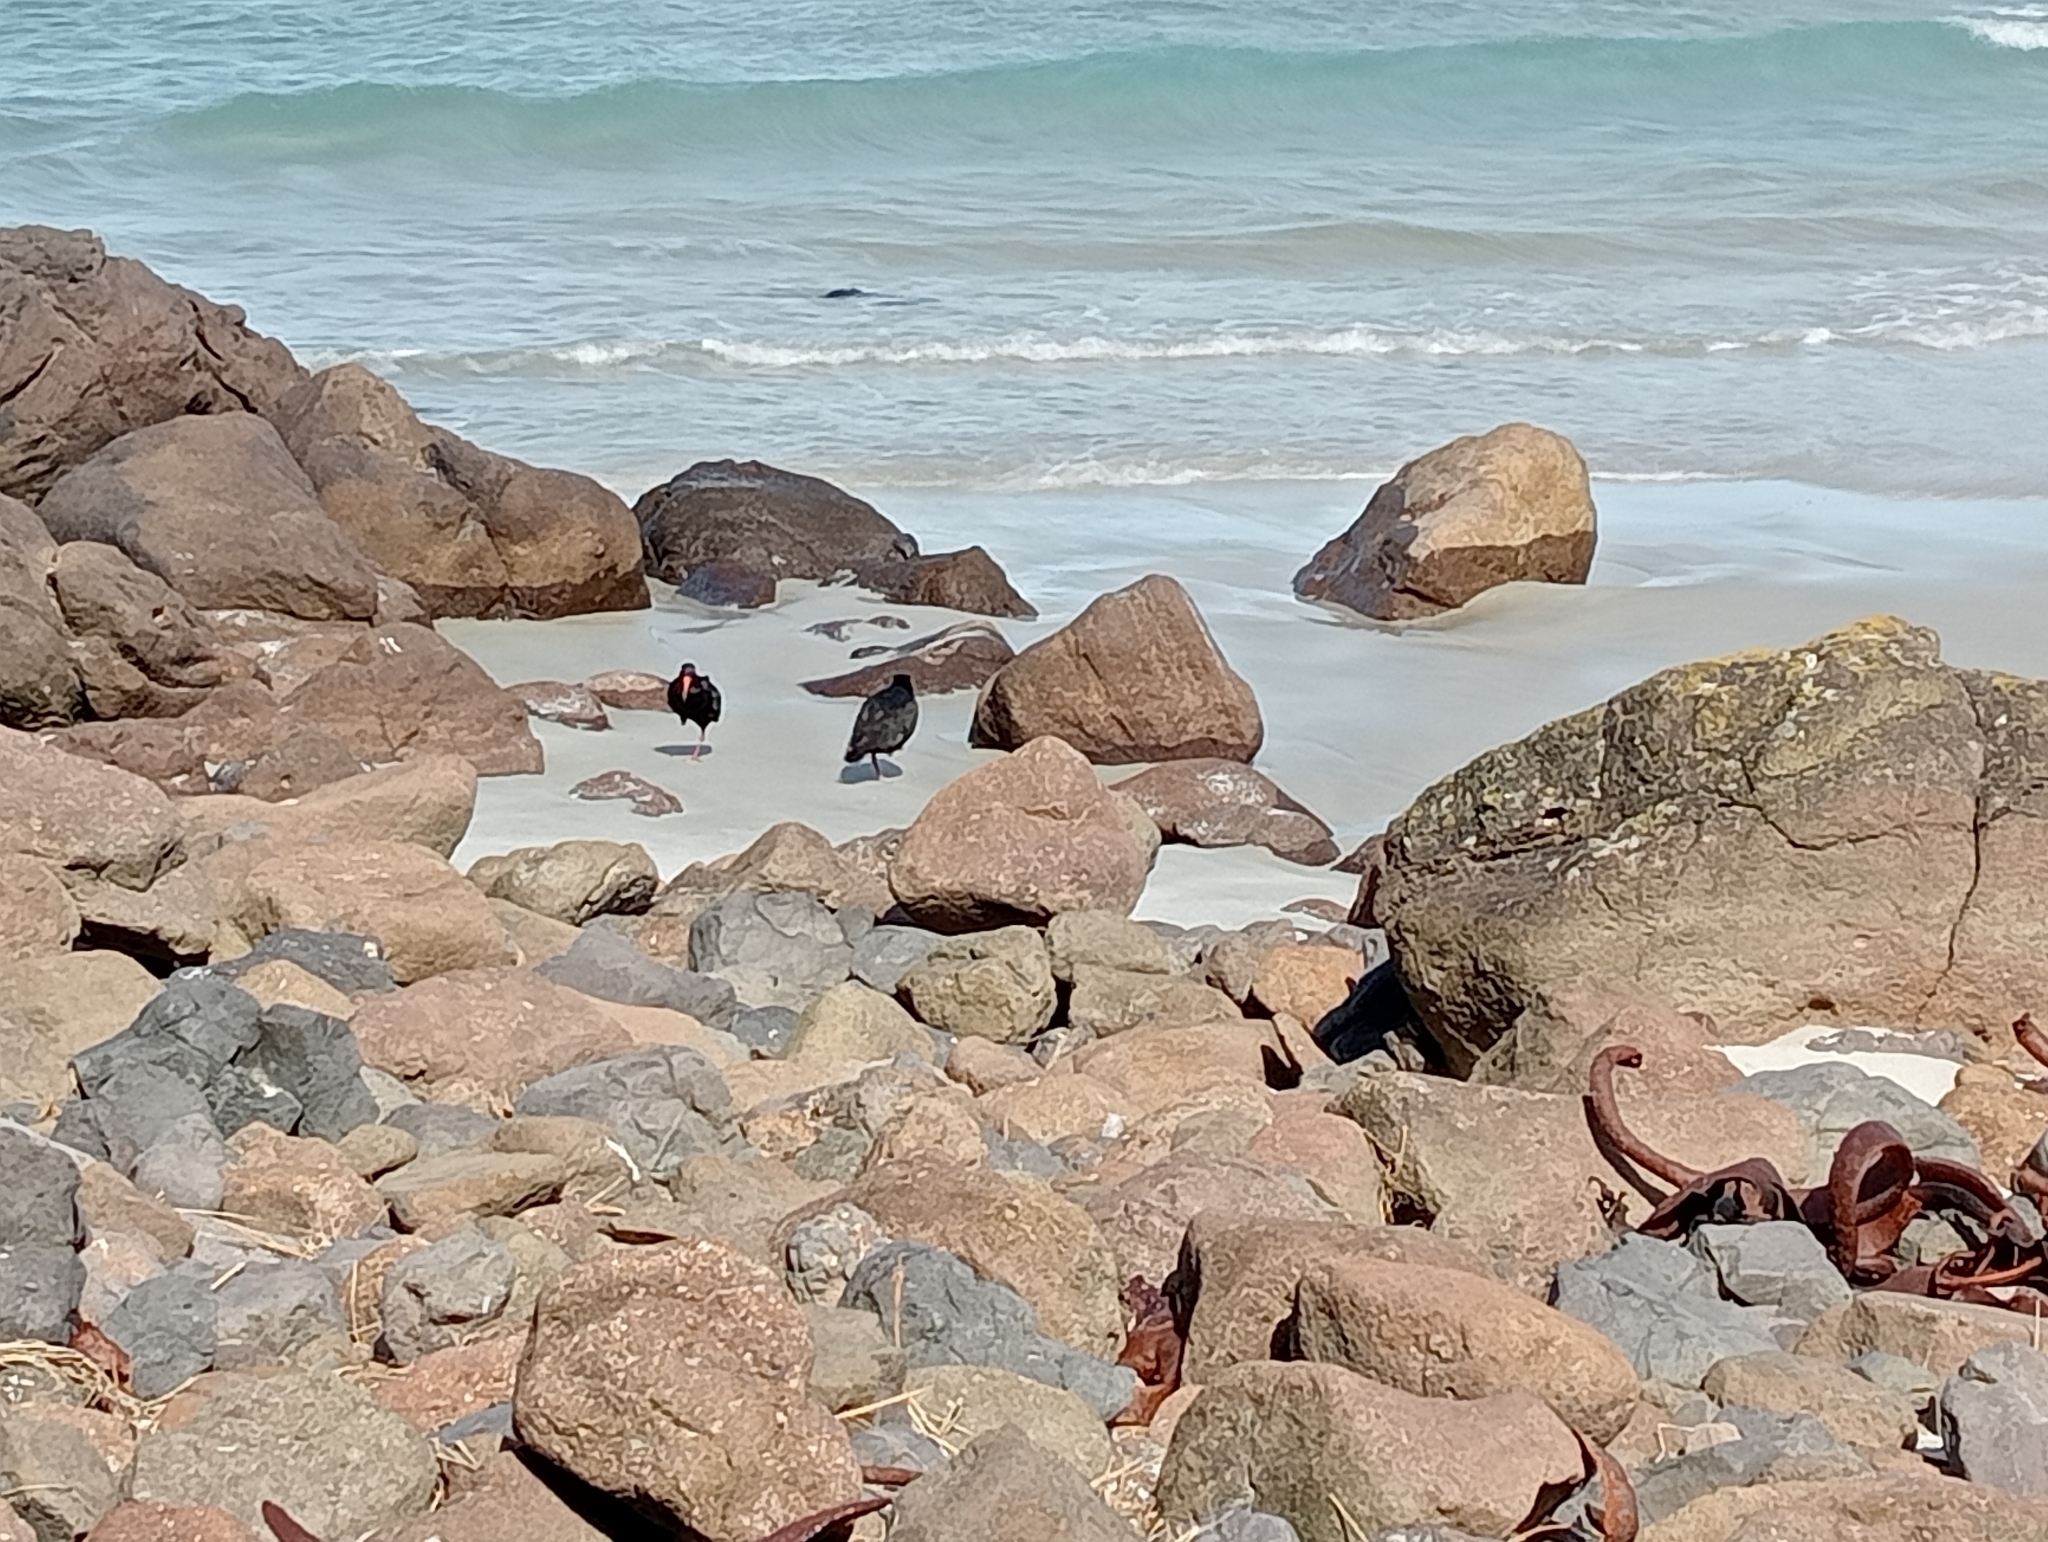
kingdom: Animalia
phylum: Chordata
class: Aves
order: Charadriiformes
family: Haematopodidae
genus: Haematopus
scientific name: Haematopus unicolor
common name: Variable oystercatcher
